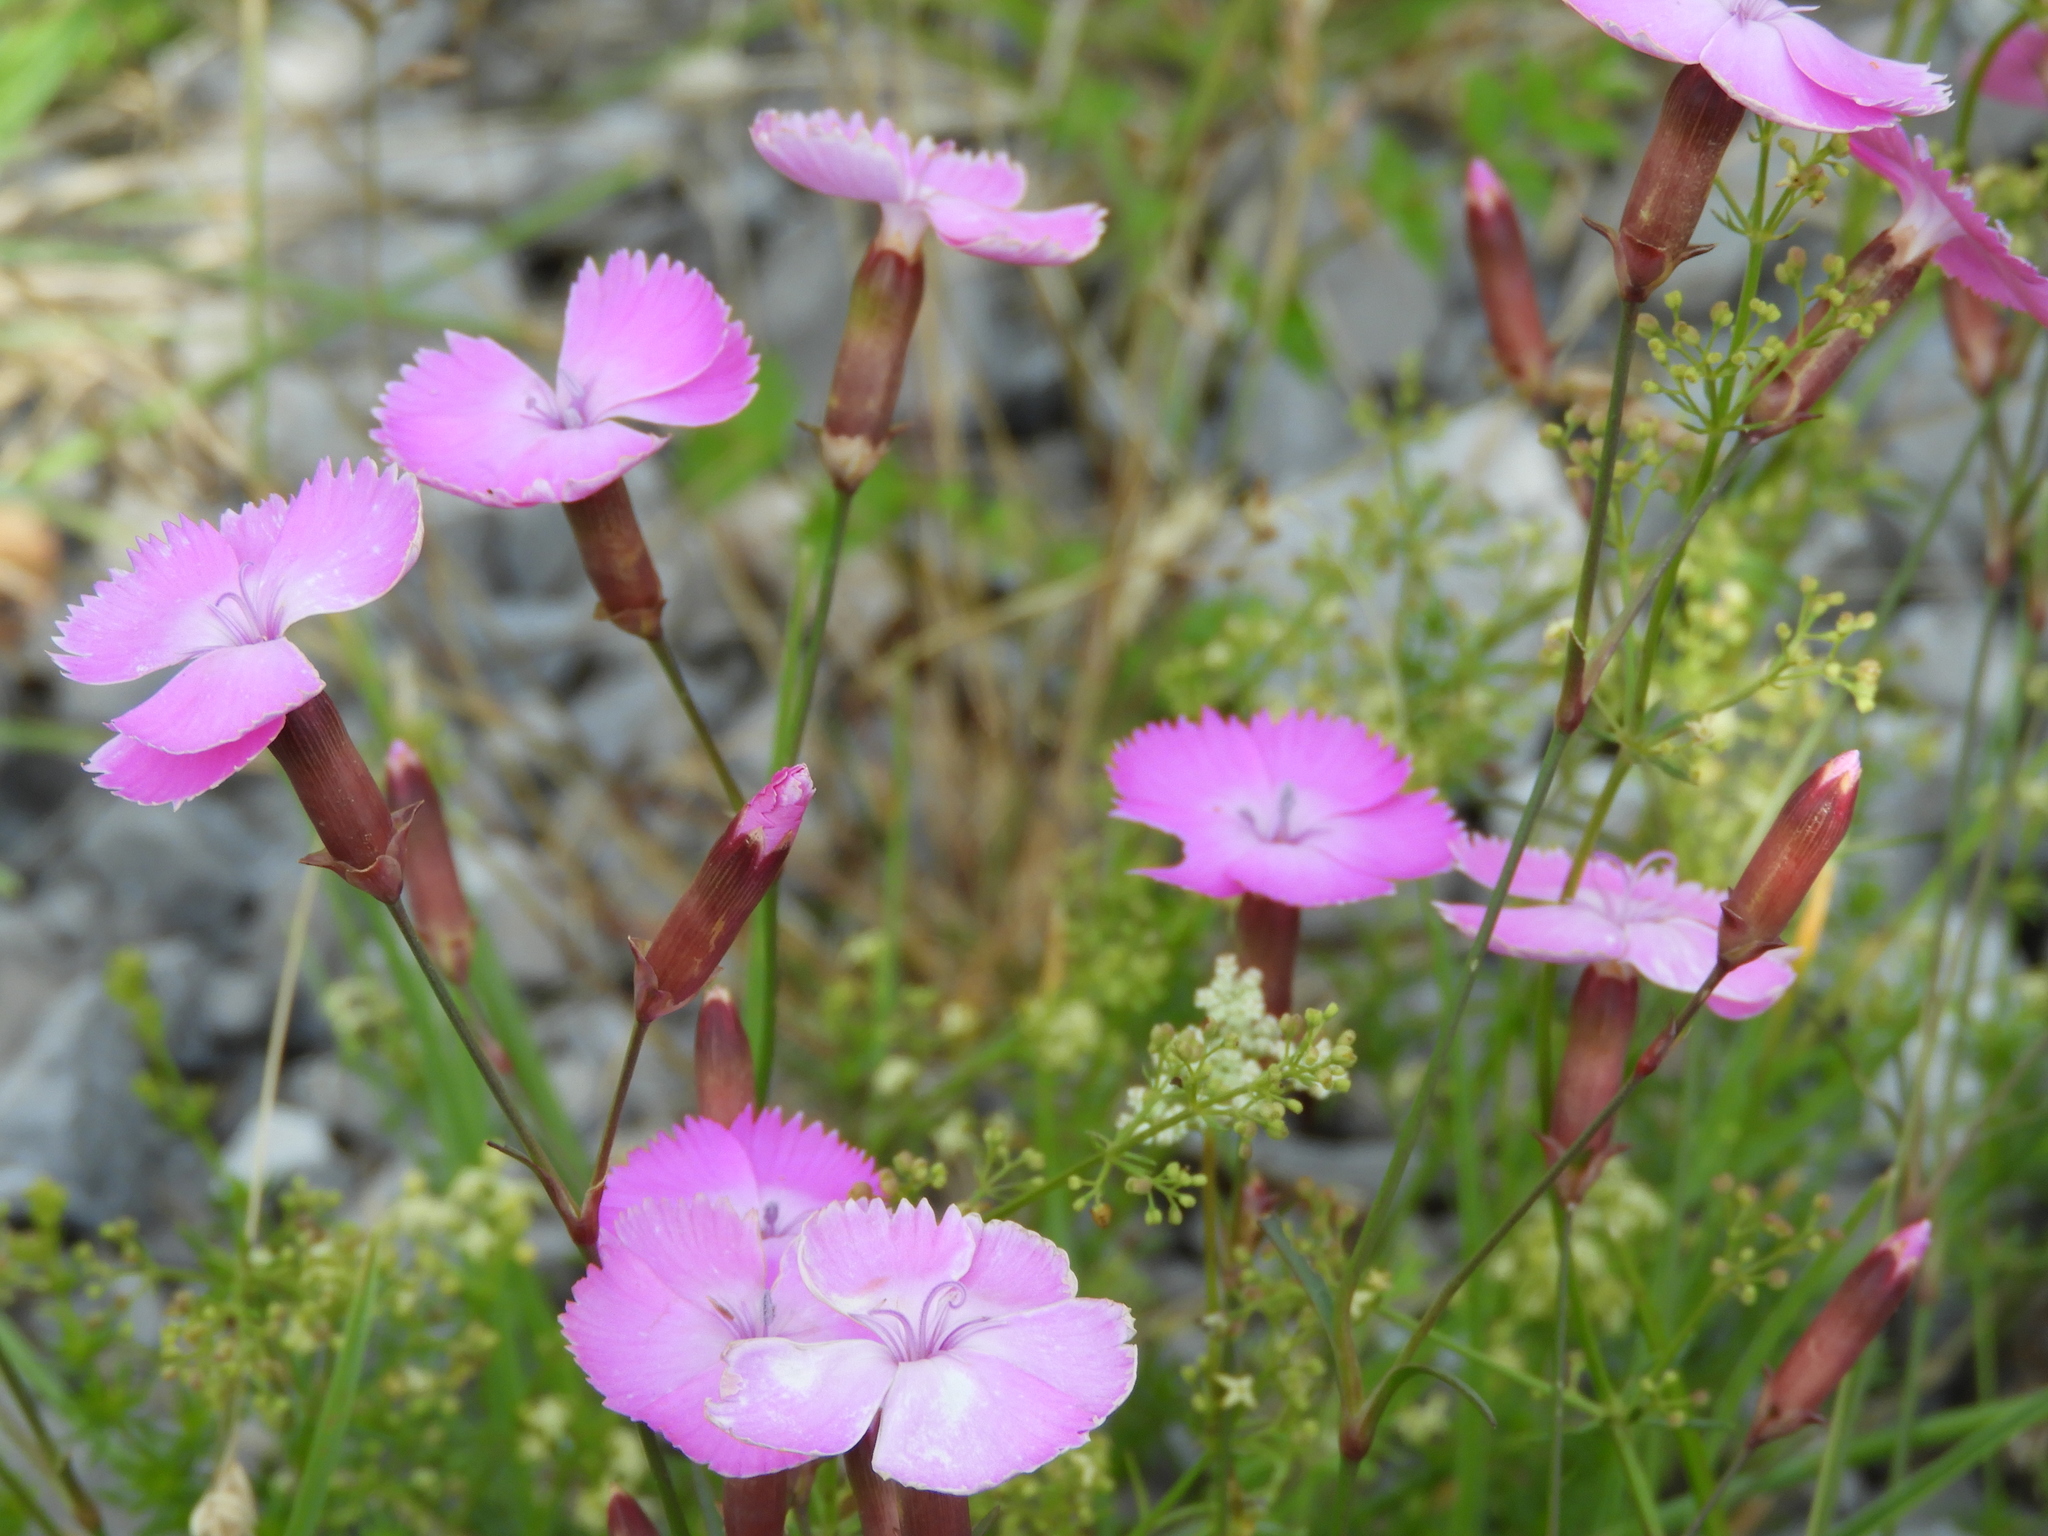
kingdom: Plantae
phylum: Tracheophyta
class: Magnoliopsida
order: Caryophyllales
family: Caryophyllaceae
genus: Dianthus
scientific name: Dianthus sylvestris
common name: Wood pink
